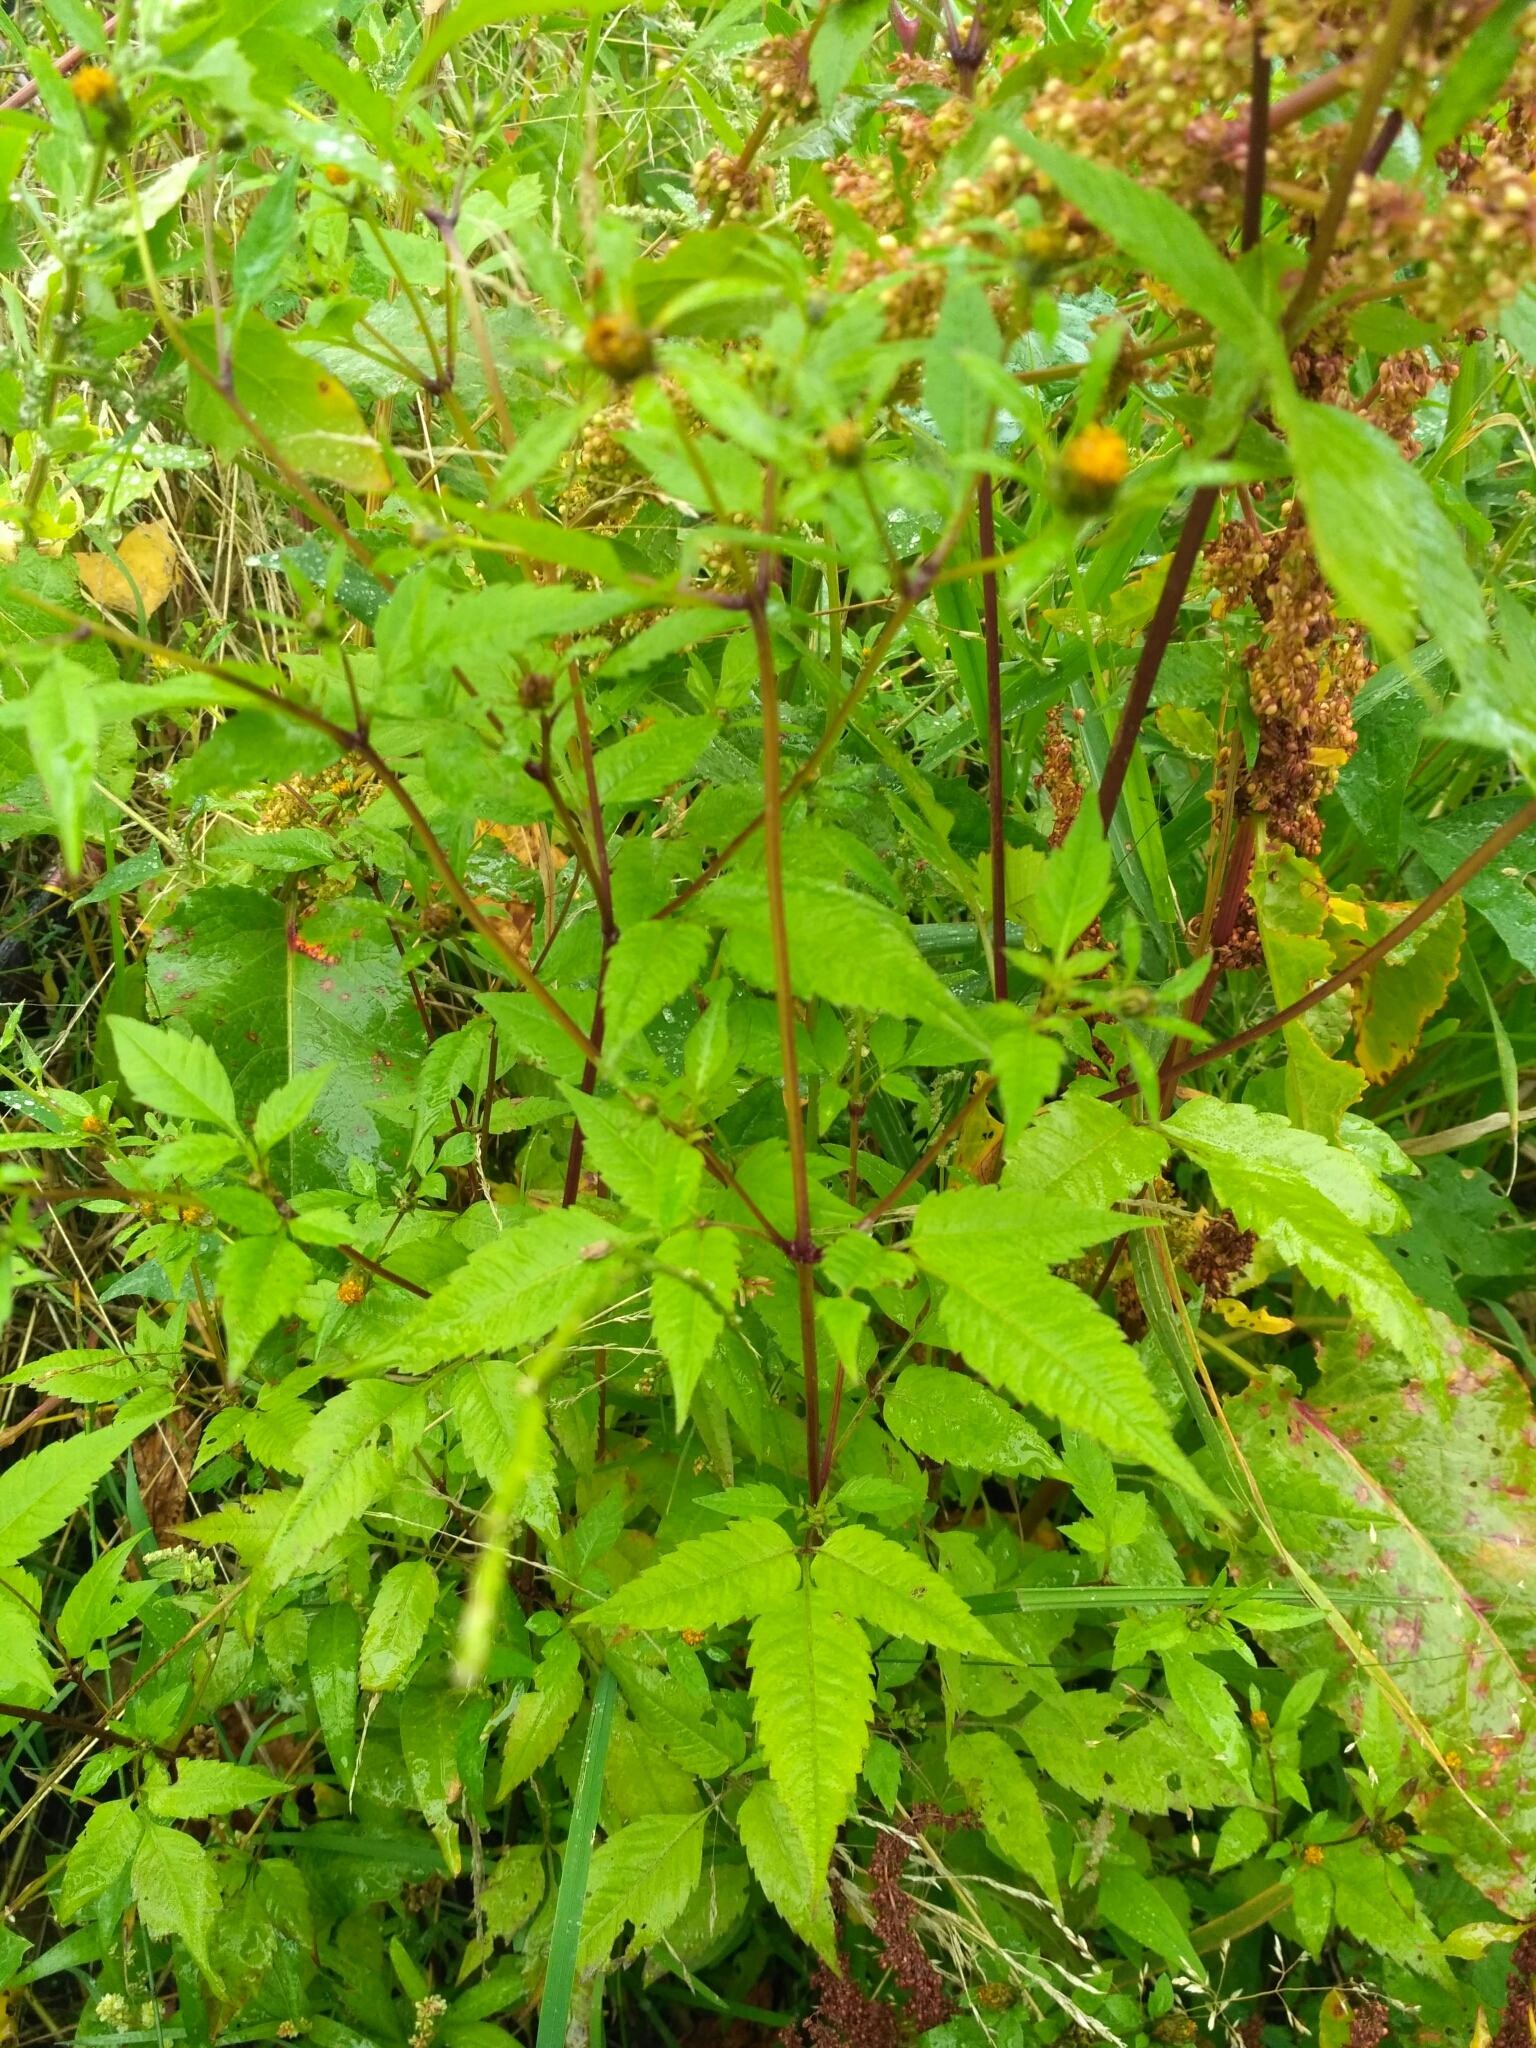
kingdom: Plantae
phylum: Tracheophyta
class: Magnoliopsida
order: Asterales
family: Asteraceae
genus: Bidens
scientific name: Bidens frondosa
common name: Beggarticks
